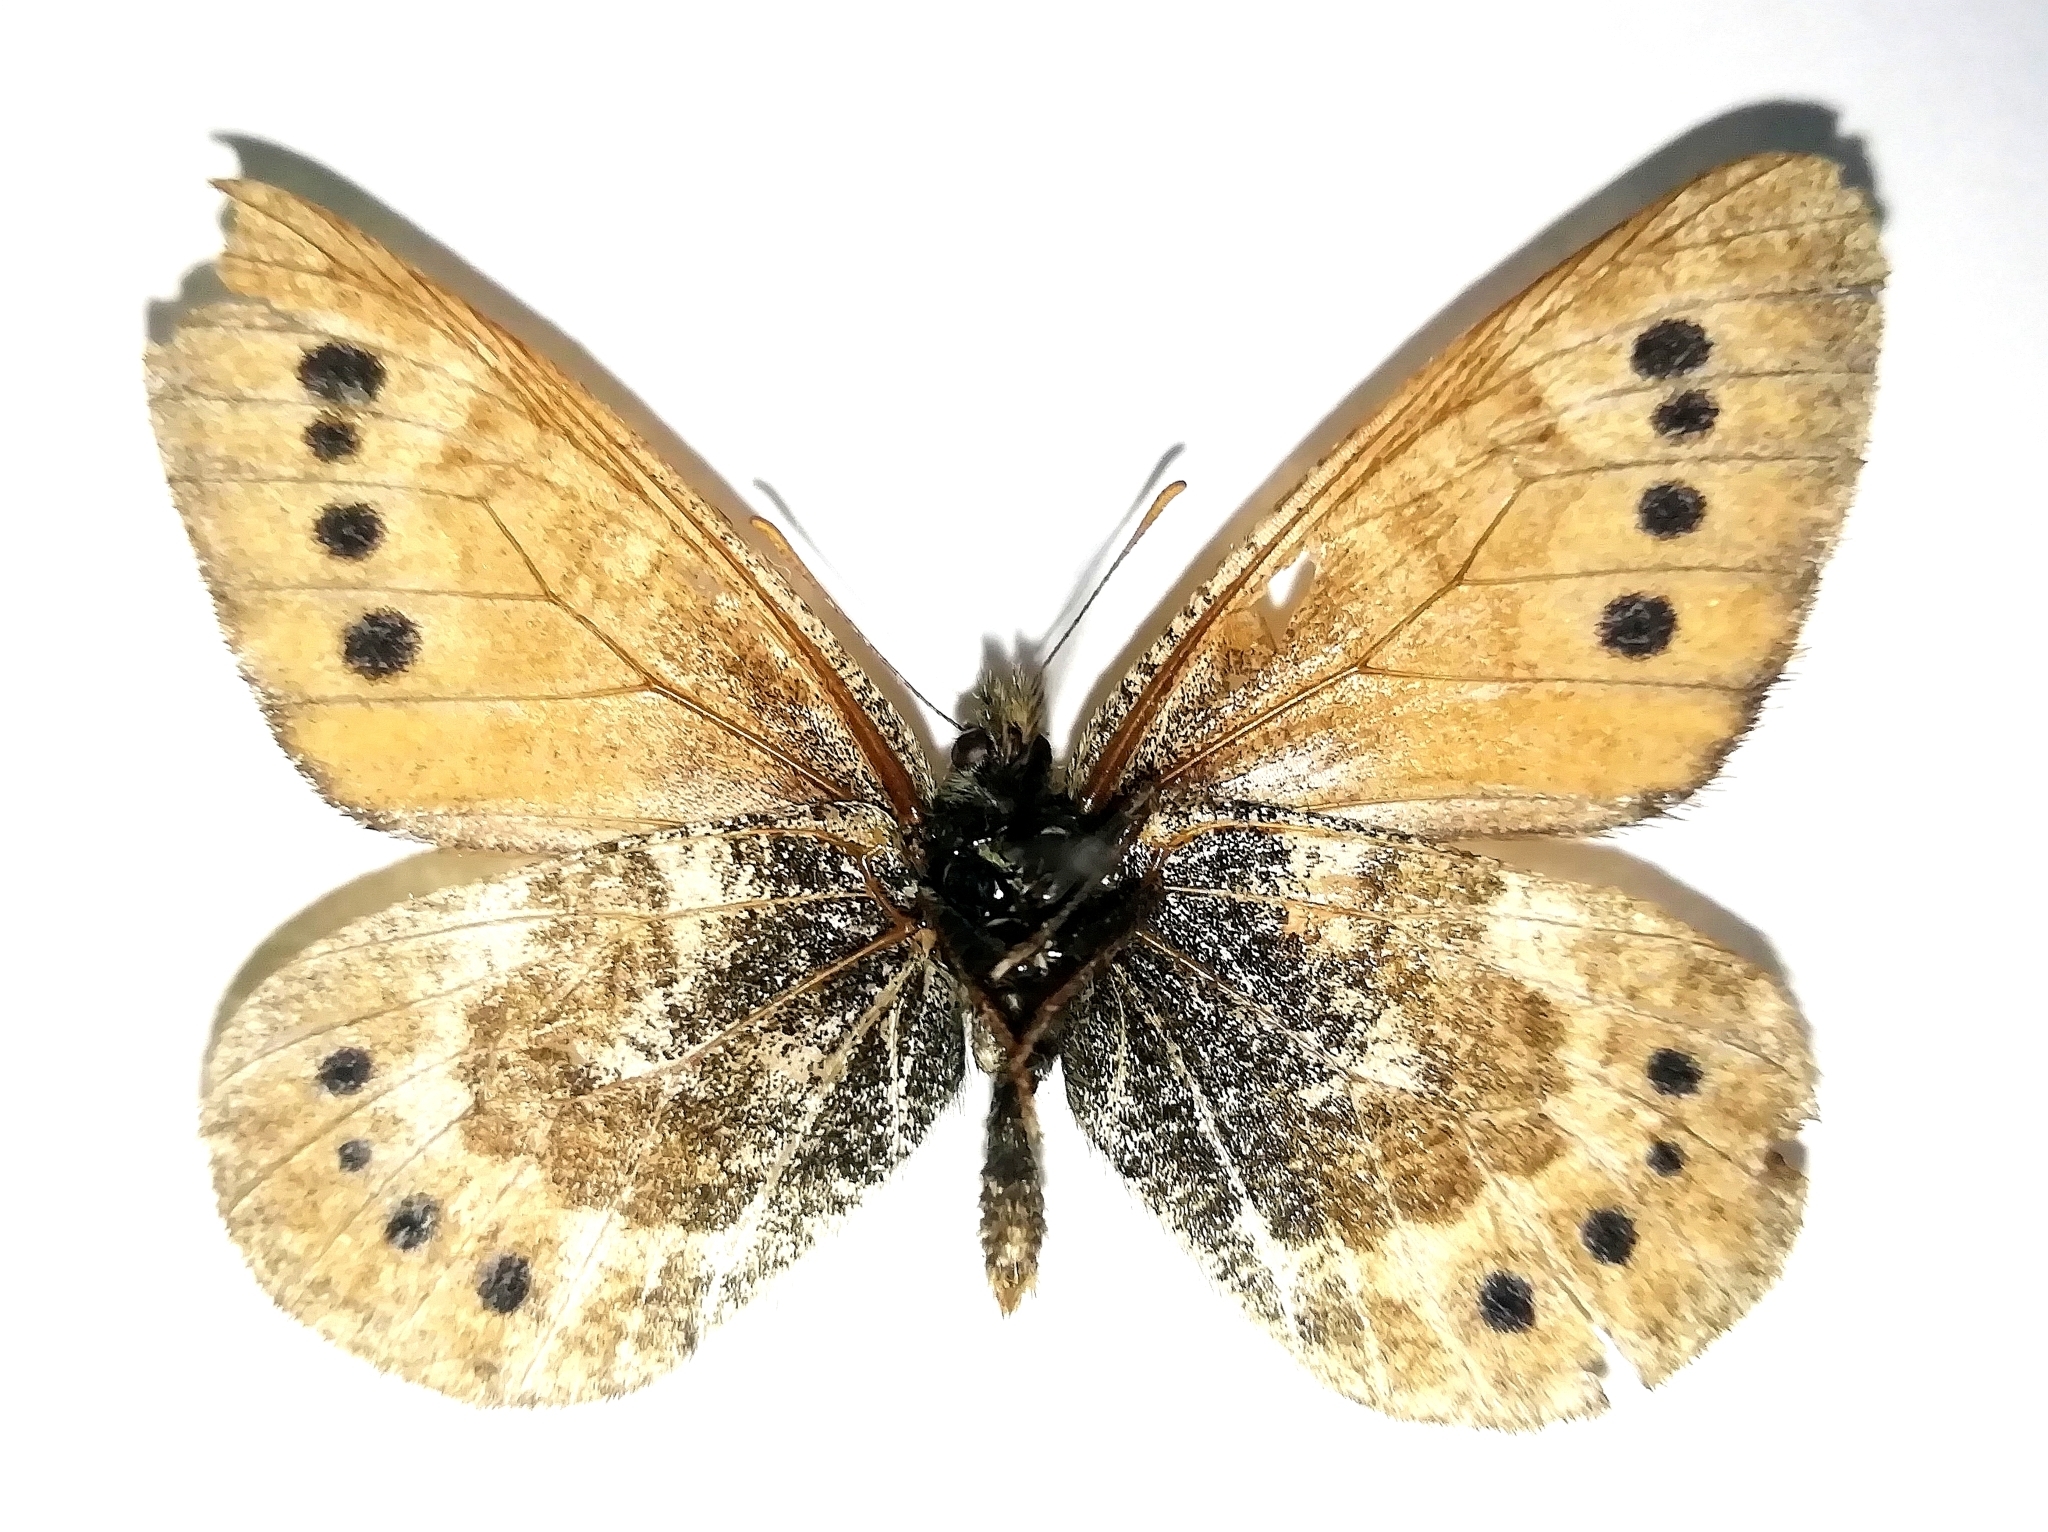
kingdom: Animalia
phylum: Arthropoda
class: Insecta
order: Lepidoptera
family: Nymphalidae
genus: Oeneis
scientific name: Oeneis tarpeia
